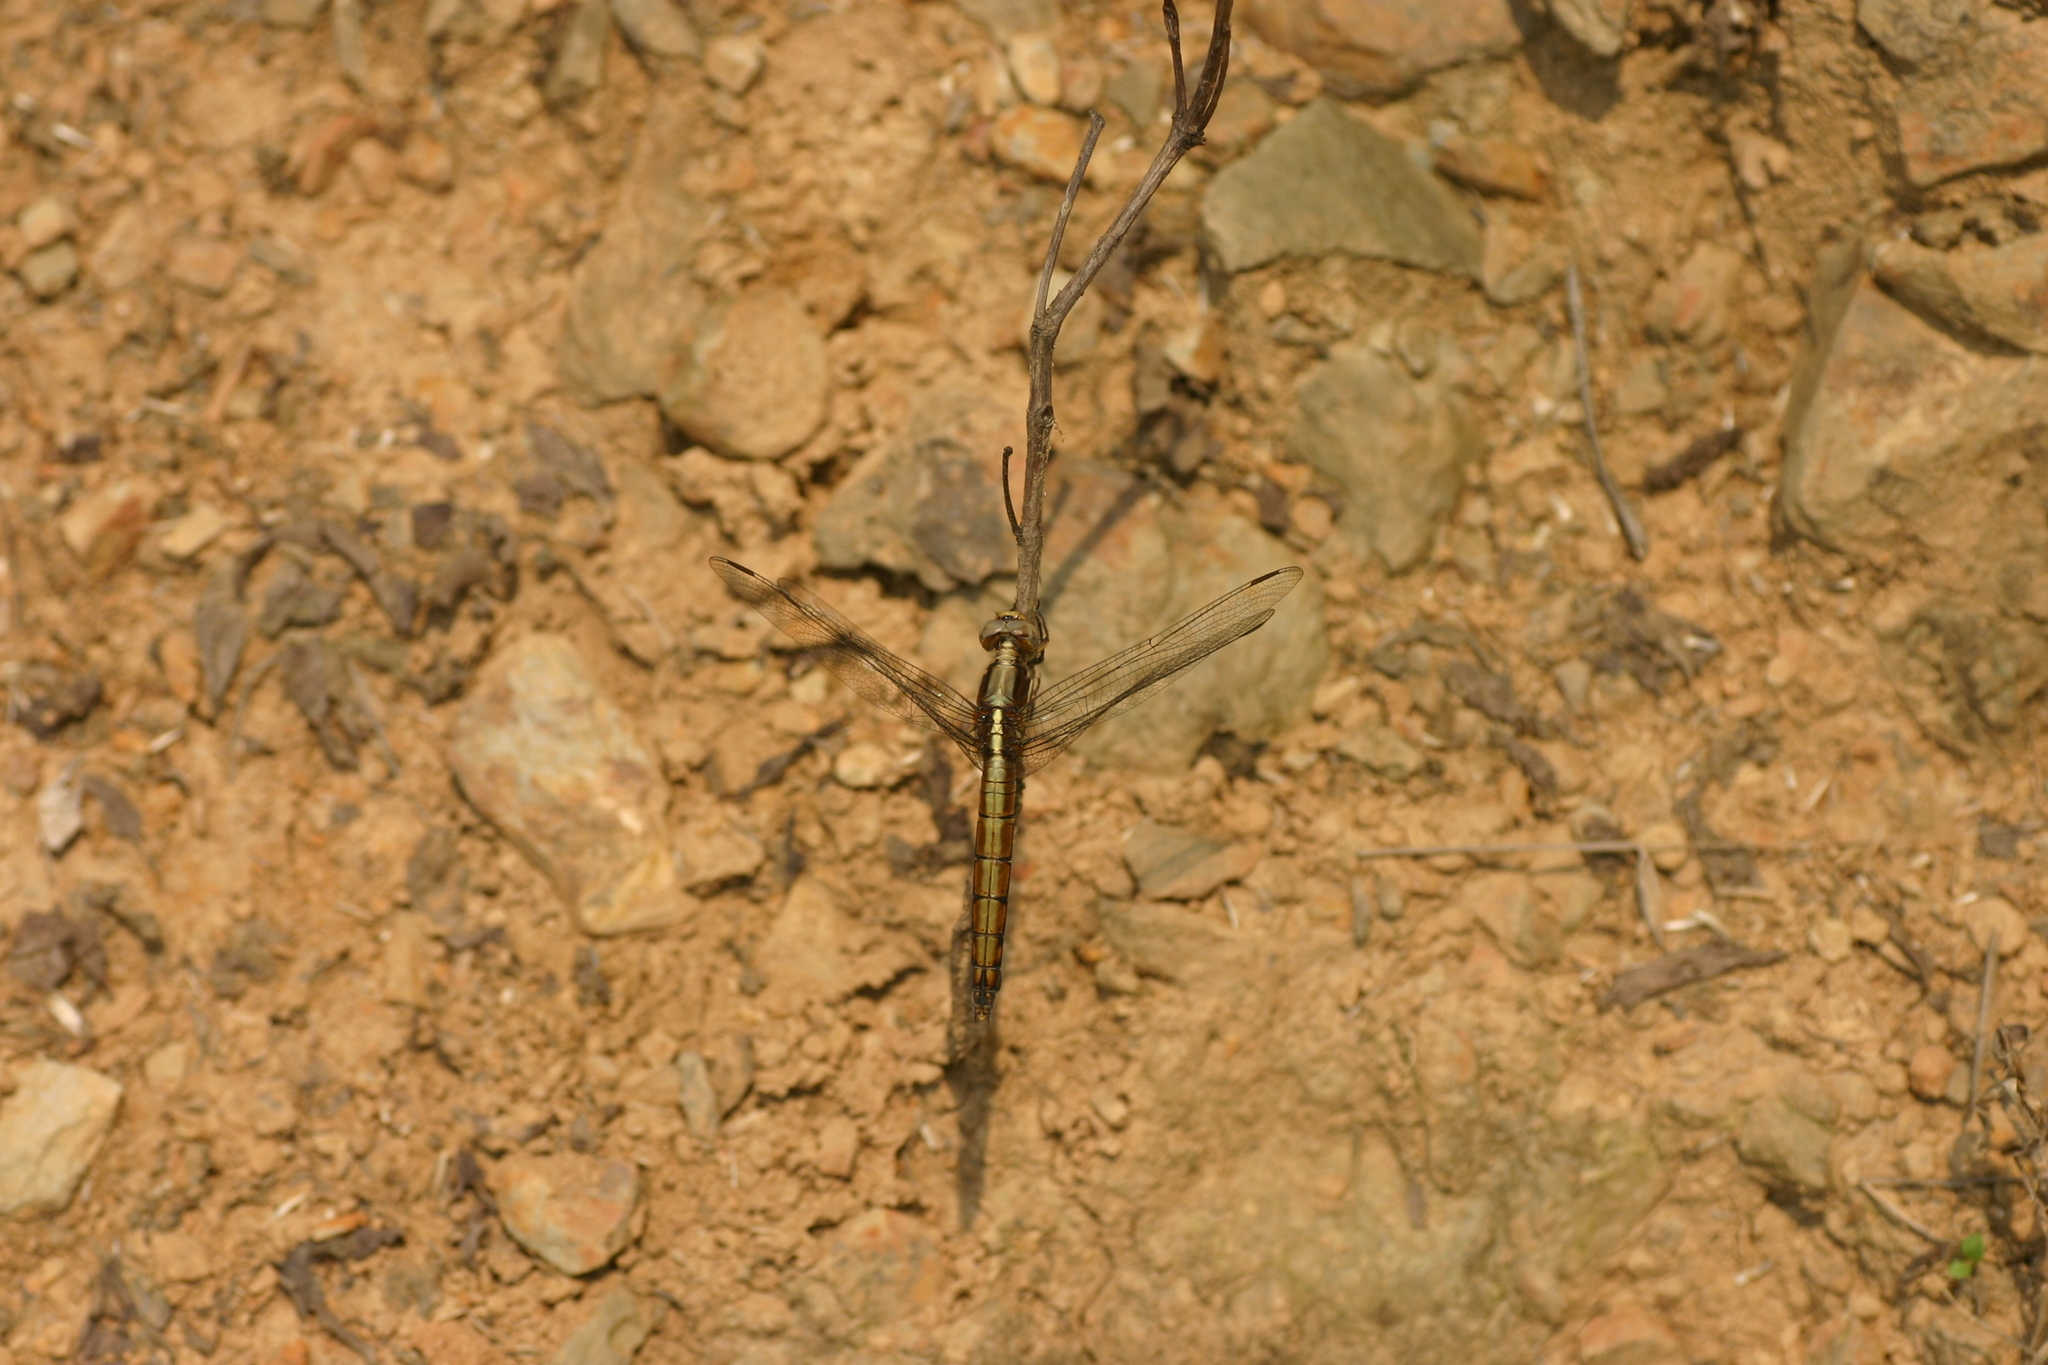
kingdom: Animalia
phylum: Arthropoda
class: Insecta
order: Odonata
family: Libellulidae
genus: Orthetrum
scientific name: Orthetrum glaucum
